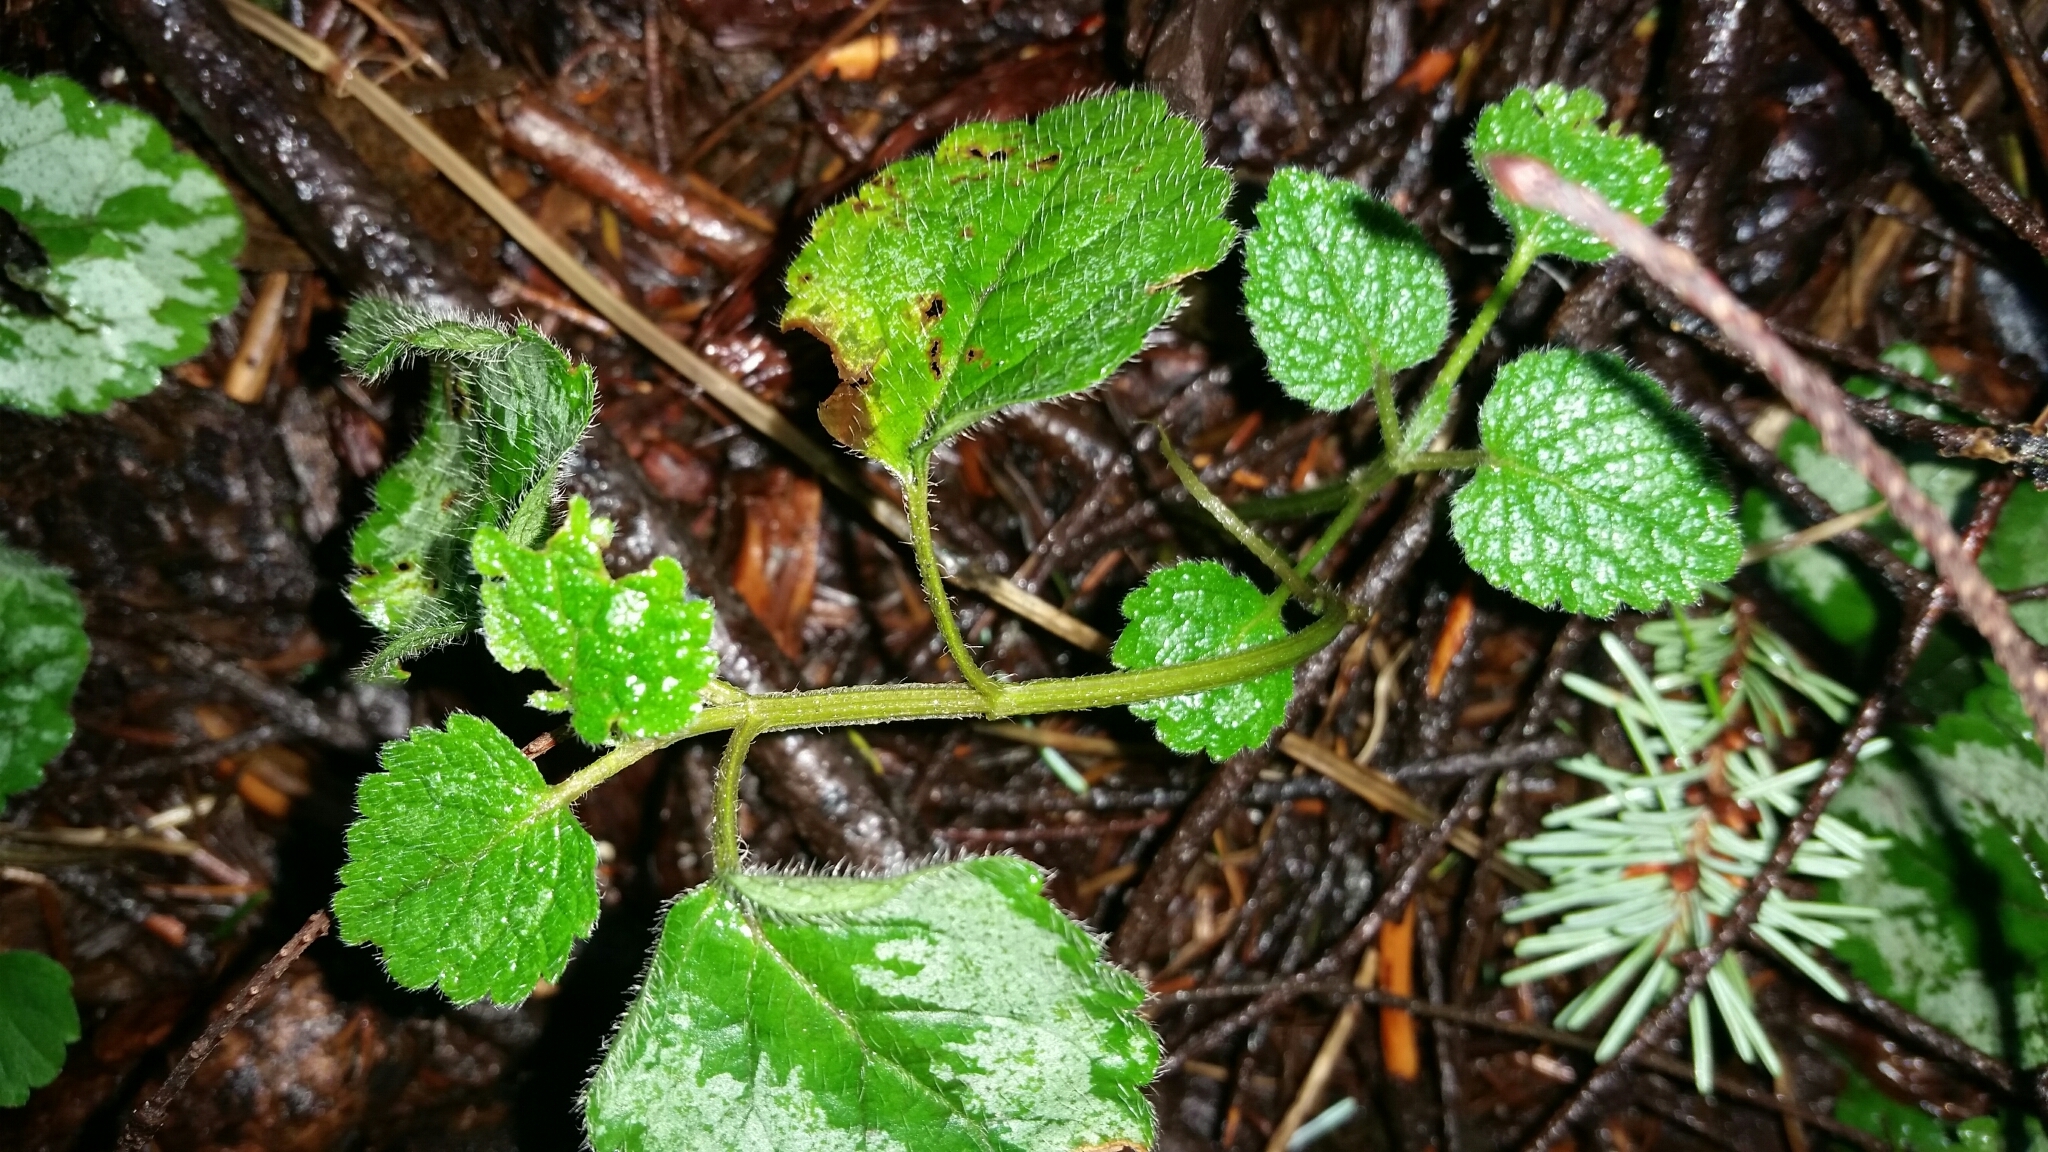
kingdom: Plantae
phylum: Tracheophyta
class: Magnoliopsida
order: Lamiales
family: Lamiaceae
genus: Lamium
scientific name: Lamium galeobdolon
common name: Yellow archangel
